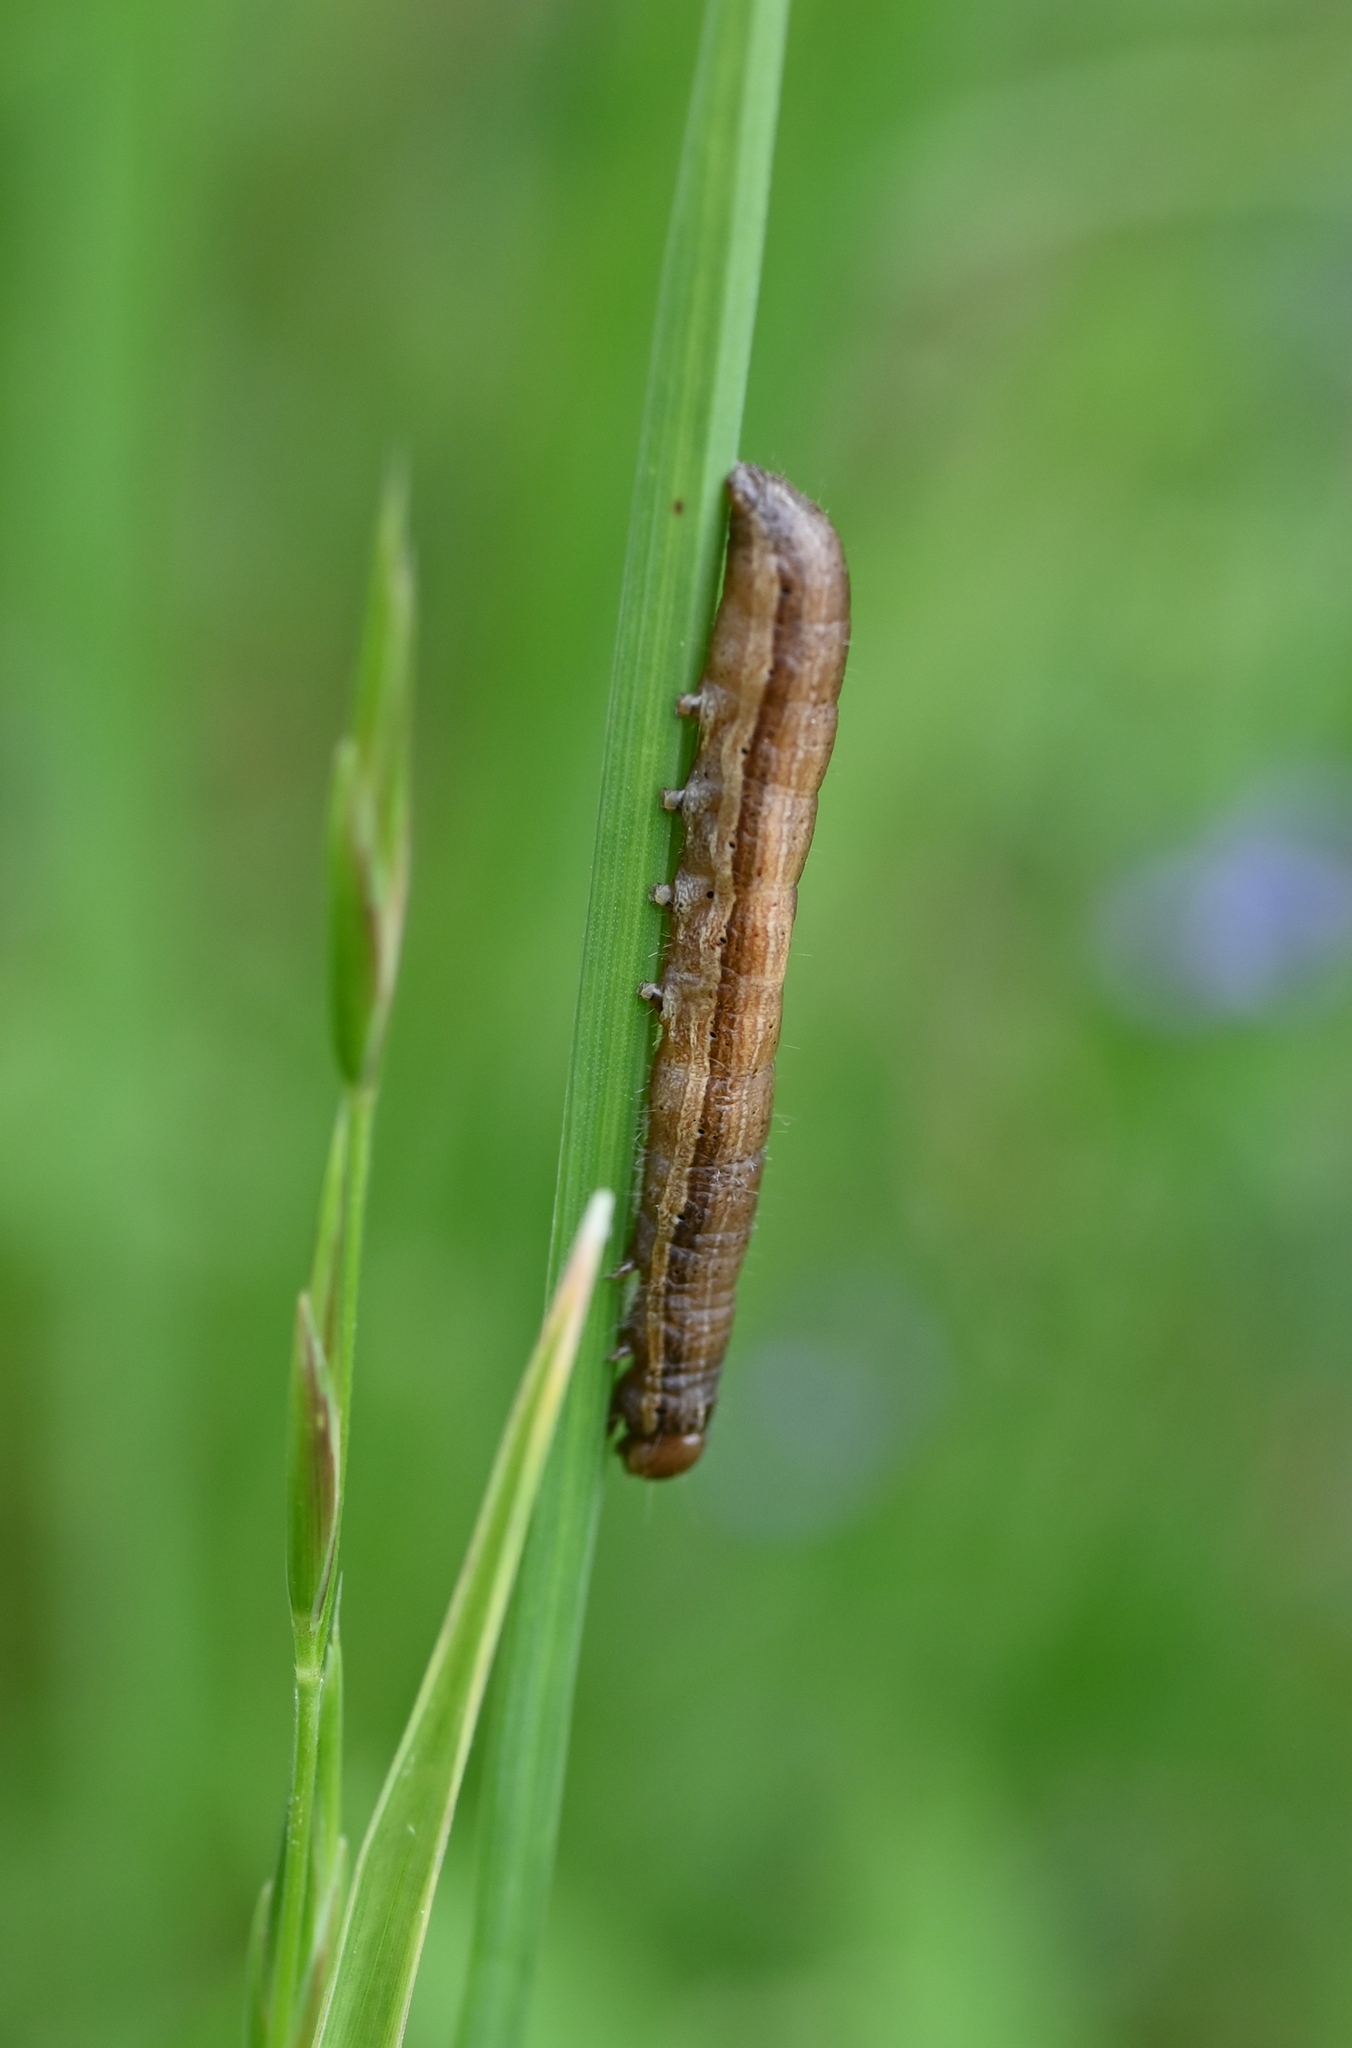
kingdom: Animalia
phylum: Arthropoda
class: Insecta
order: Lepidoptera
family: Noctuidae
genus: Spodoptera
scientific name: Spodoptera frugiperda
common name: Fall armyworm
